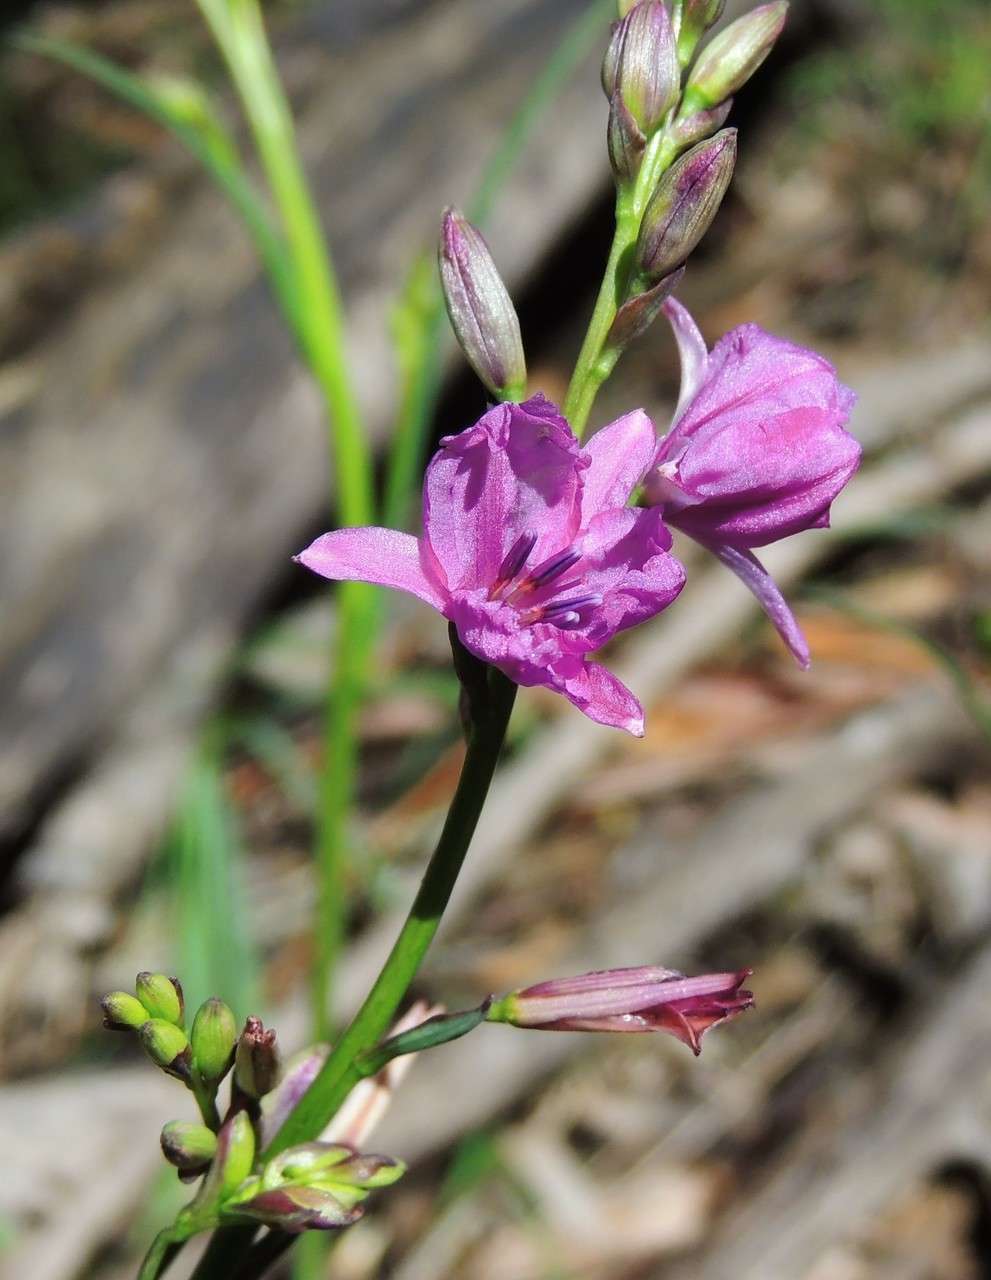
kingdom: Plantae
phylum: Tracheophyta
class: Liliopsida
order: Asparagales
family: Asparagaceae
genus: Arthropodium
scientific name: Arthropodium strictum
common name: Chocolate-lily
